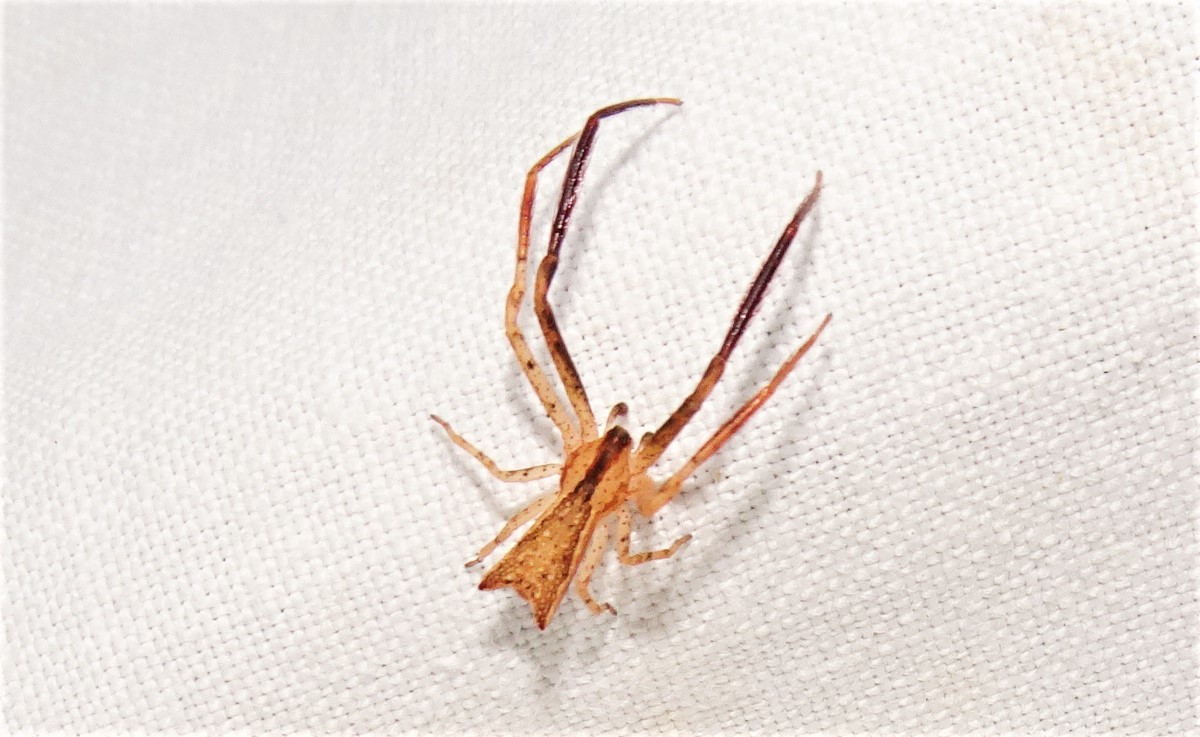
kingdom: Animalia
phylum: Arthropoda
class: Arachnida
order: Araneae
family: Thomisidae
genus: Sidymella
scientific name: Sidymella longipes
